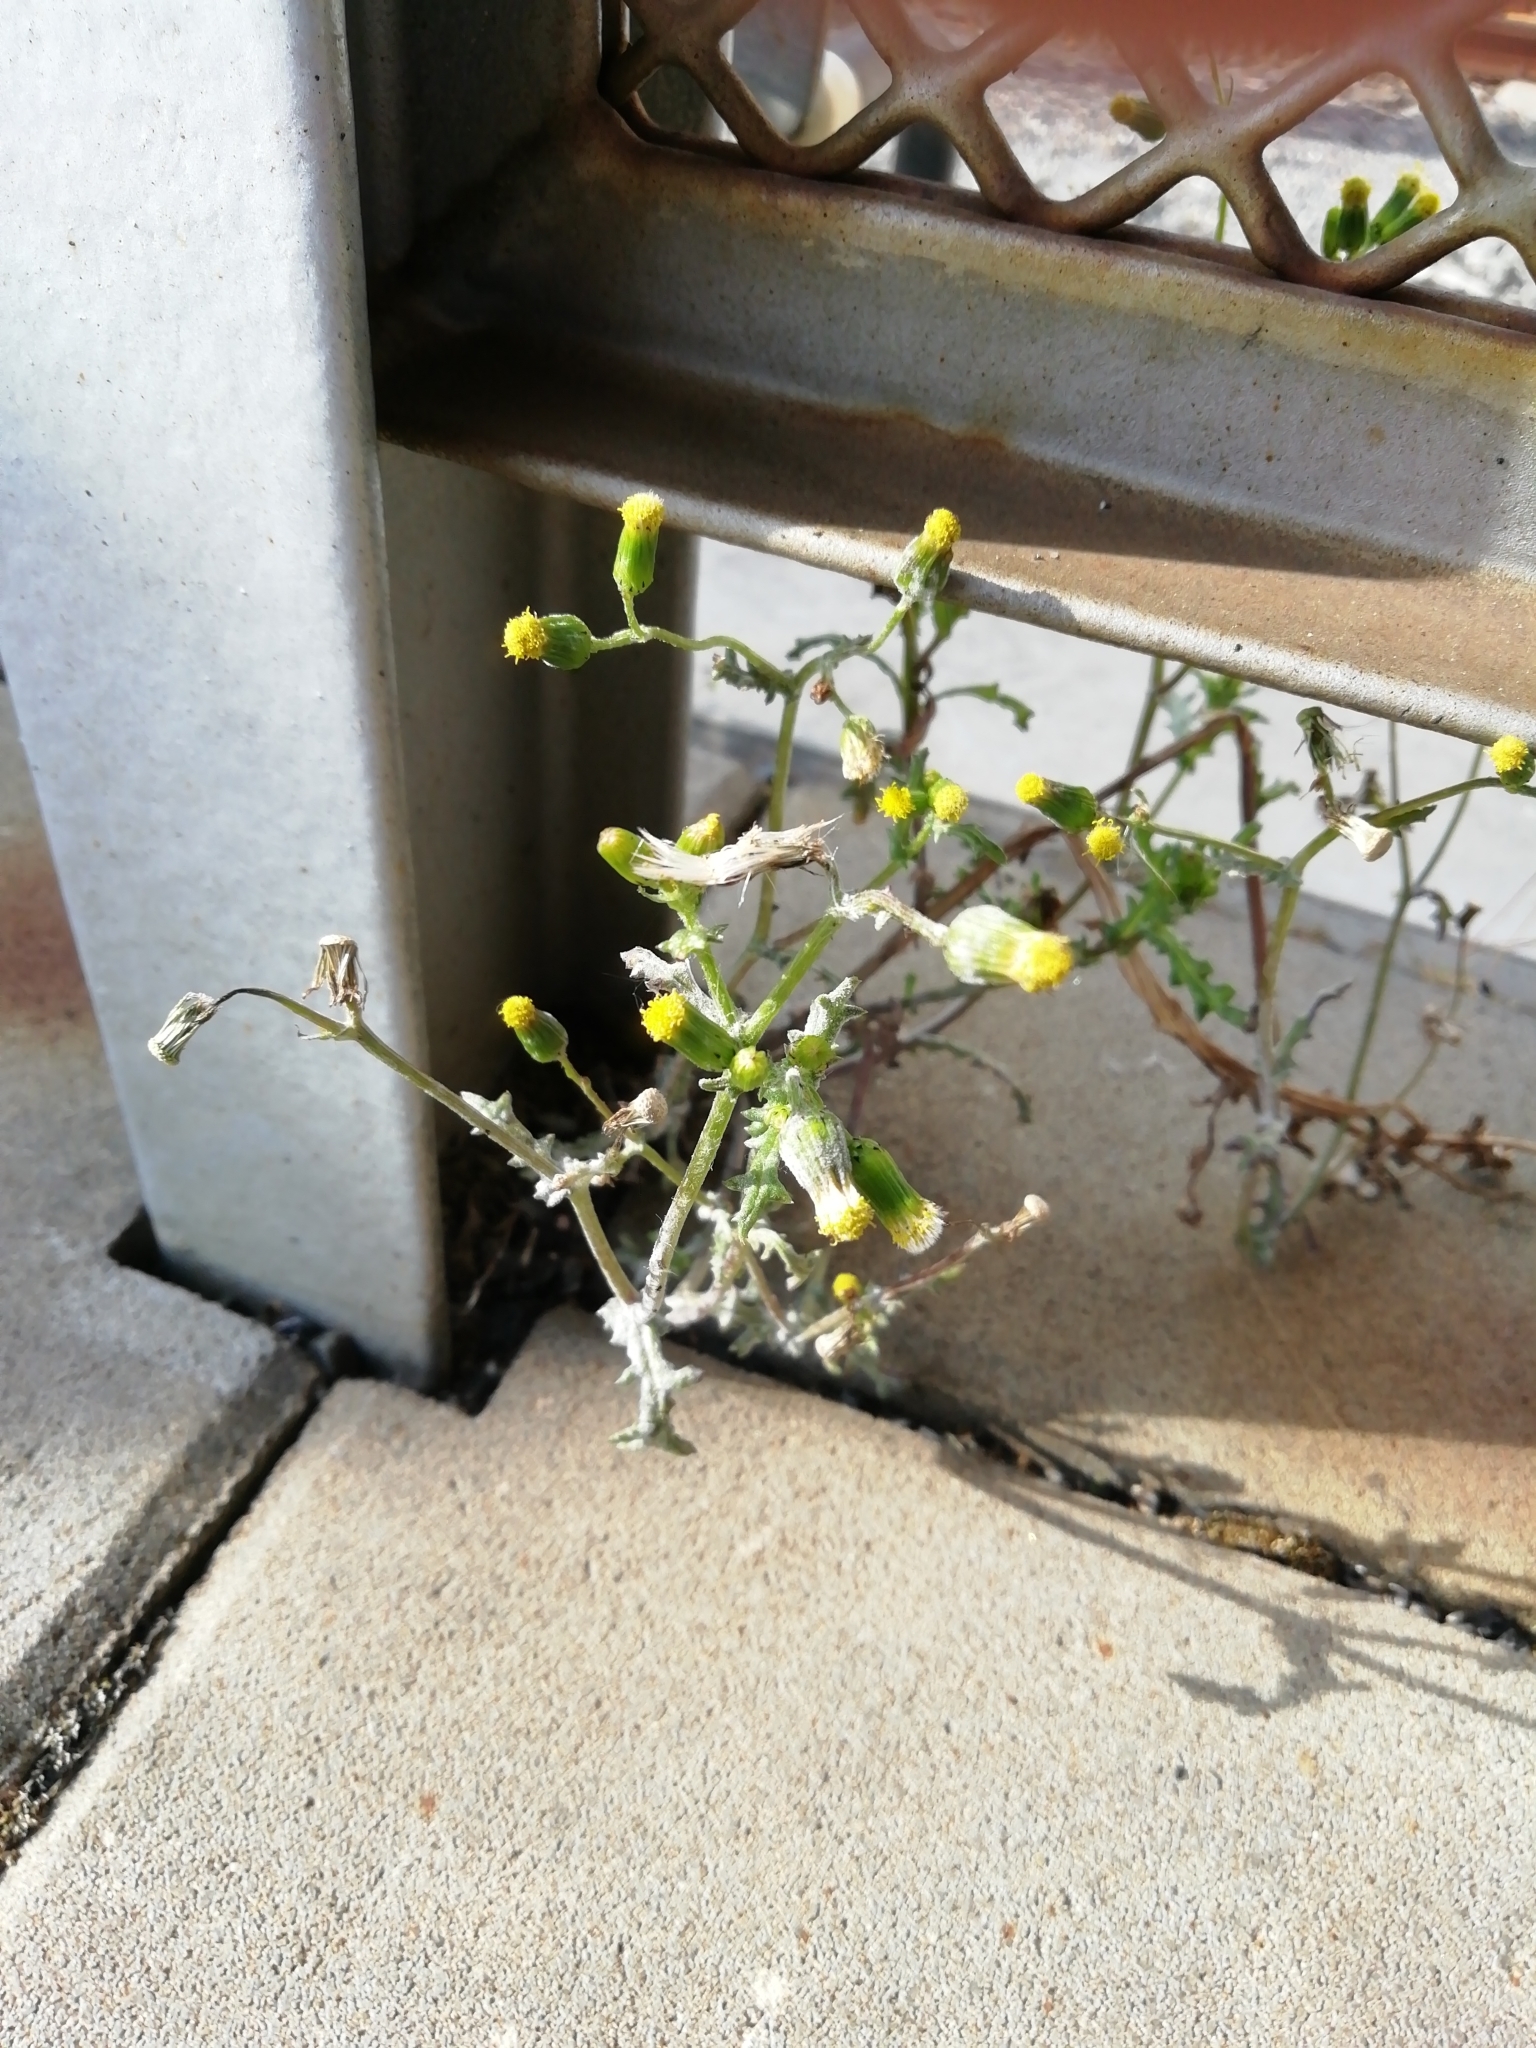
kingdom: Plantae
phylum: Tracheophyta
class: Magnoliopsida
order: Asterales
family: Asteraceae
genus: Senecio
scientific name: Senecio vulgaris
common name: Old-man-in-the-spring
